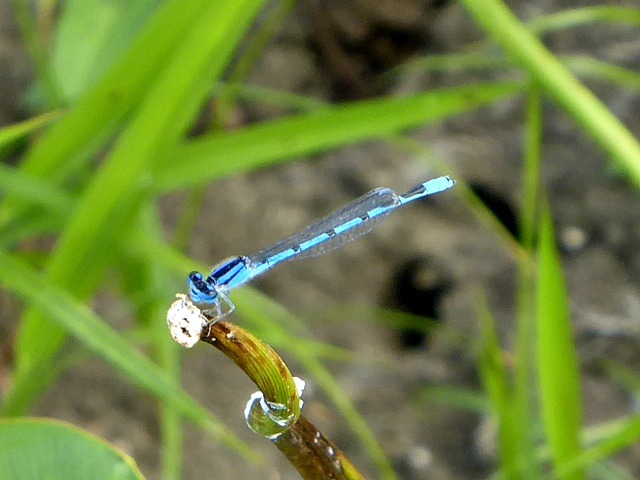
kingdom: Animalia
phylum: Arthropoda
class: Insecta
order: Odonata
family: Coenagrionidae
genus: Enallagma
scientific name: Enallagma civile
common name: Damselfly
